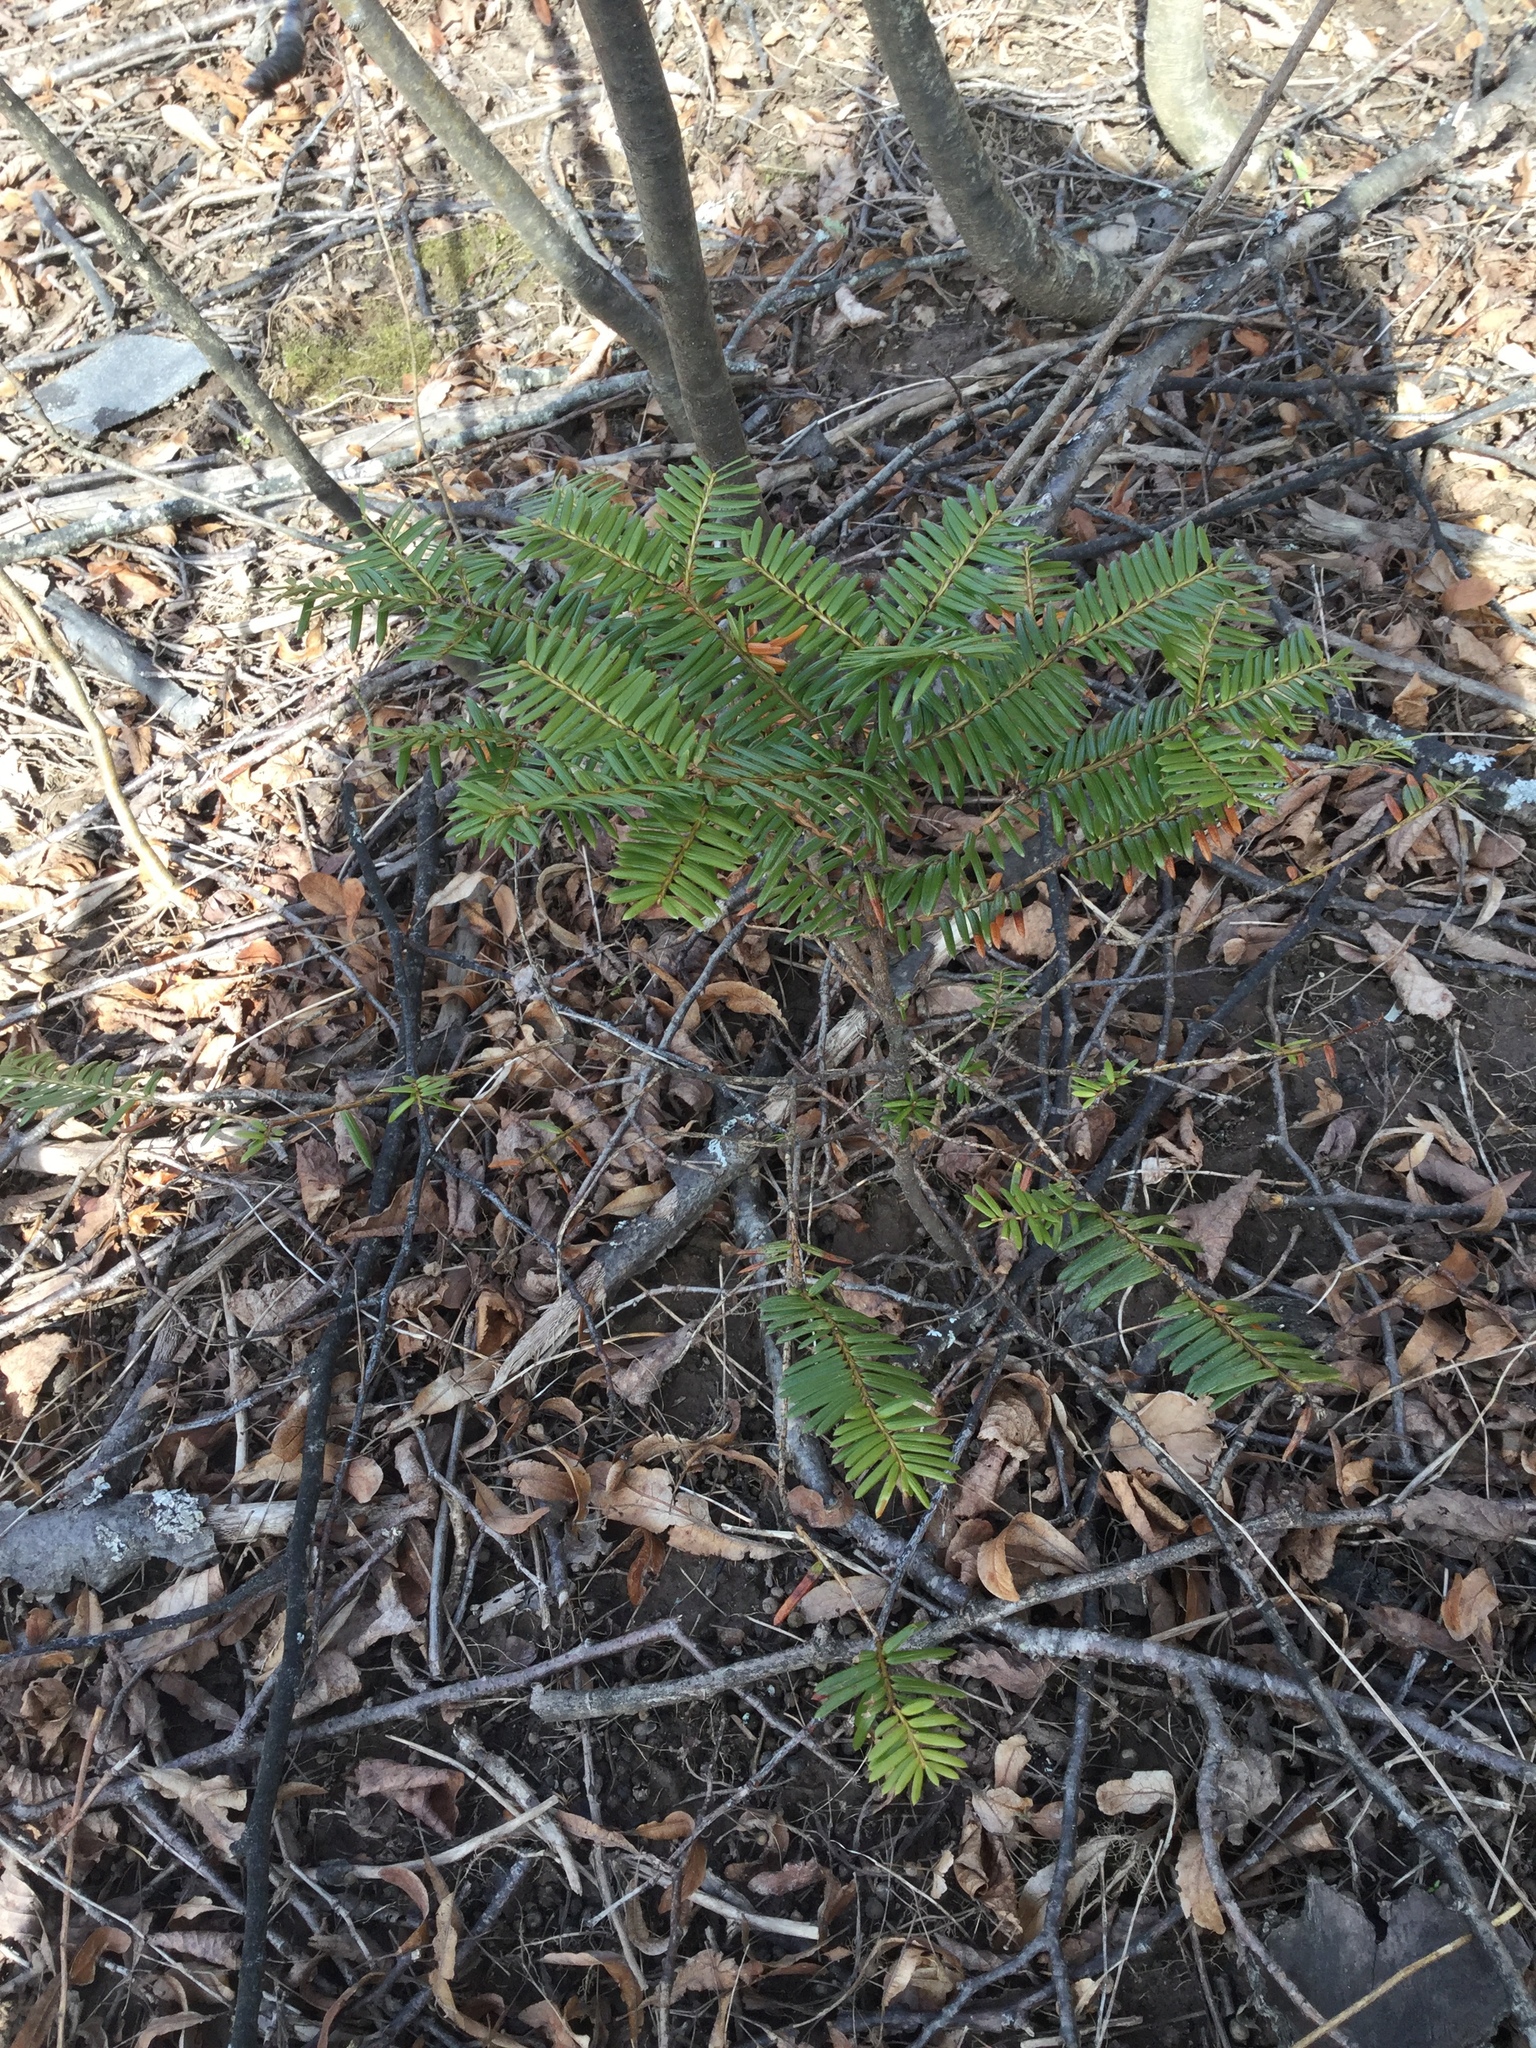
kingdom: Plantae
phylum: Tracheophyta
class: Pinopsida
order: Pinales
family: Pinaceae
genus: Abies
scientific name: Abies balsamea
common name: Balsam fir
